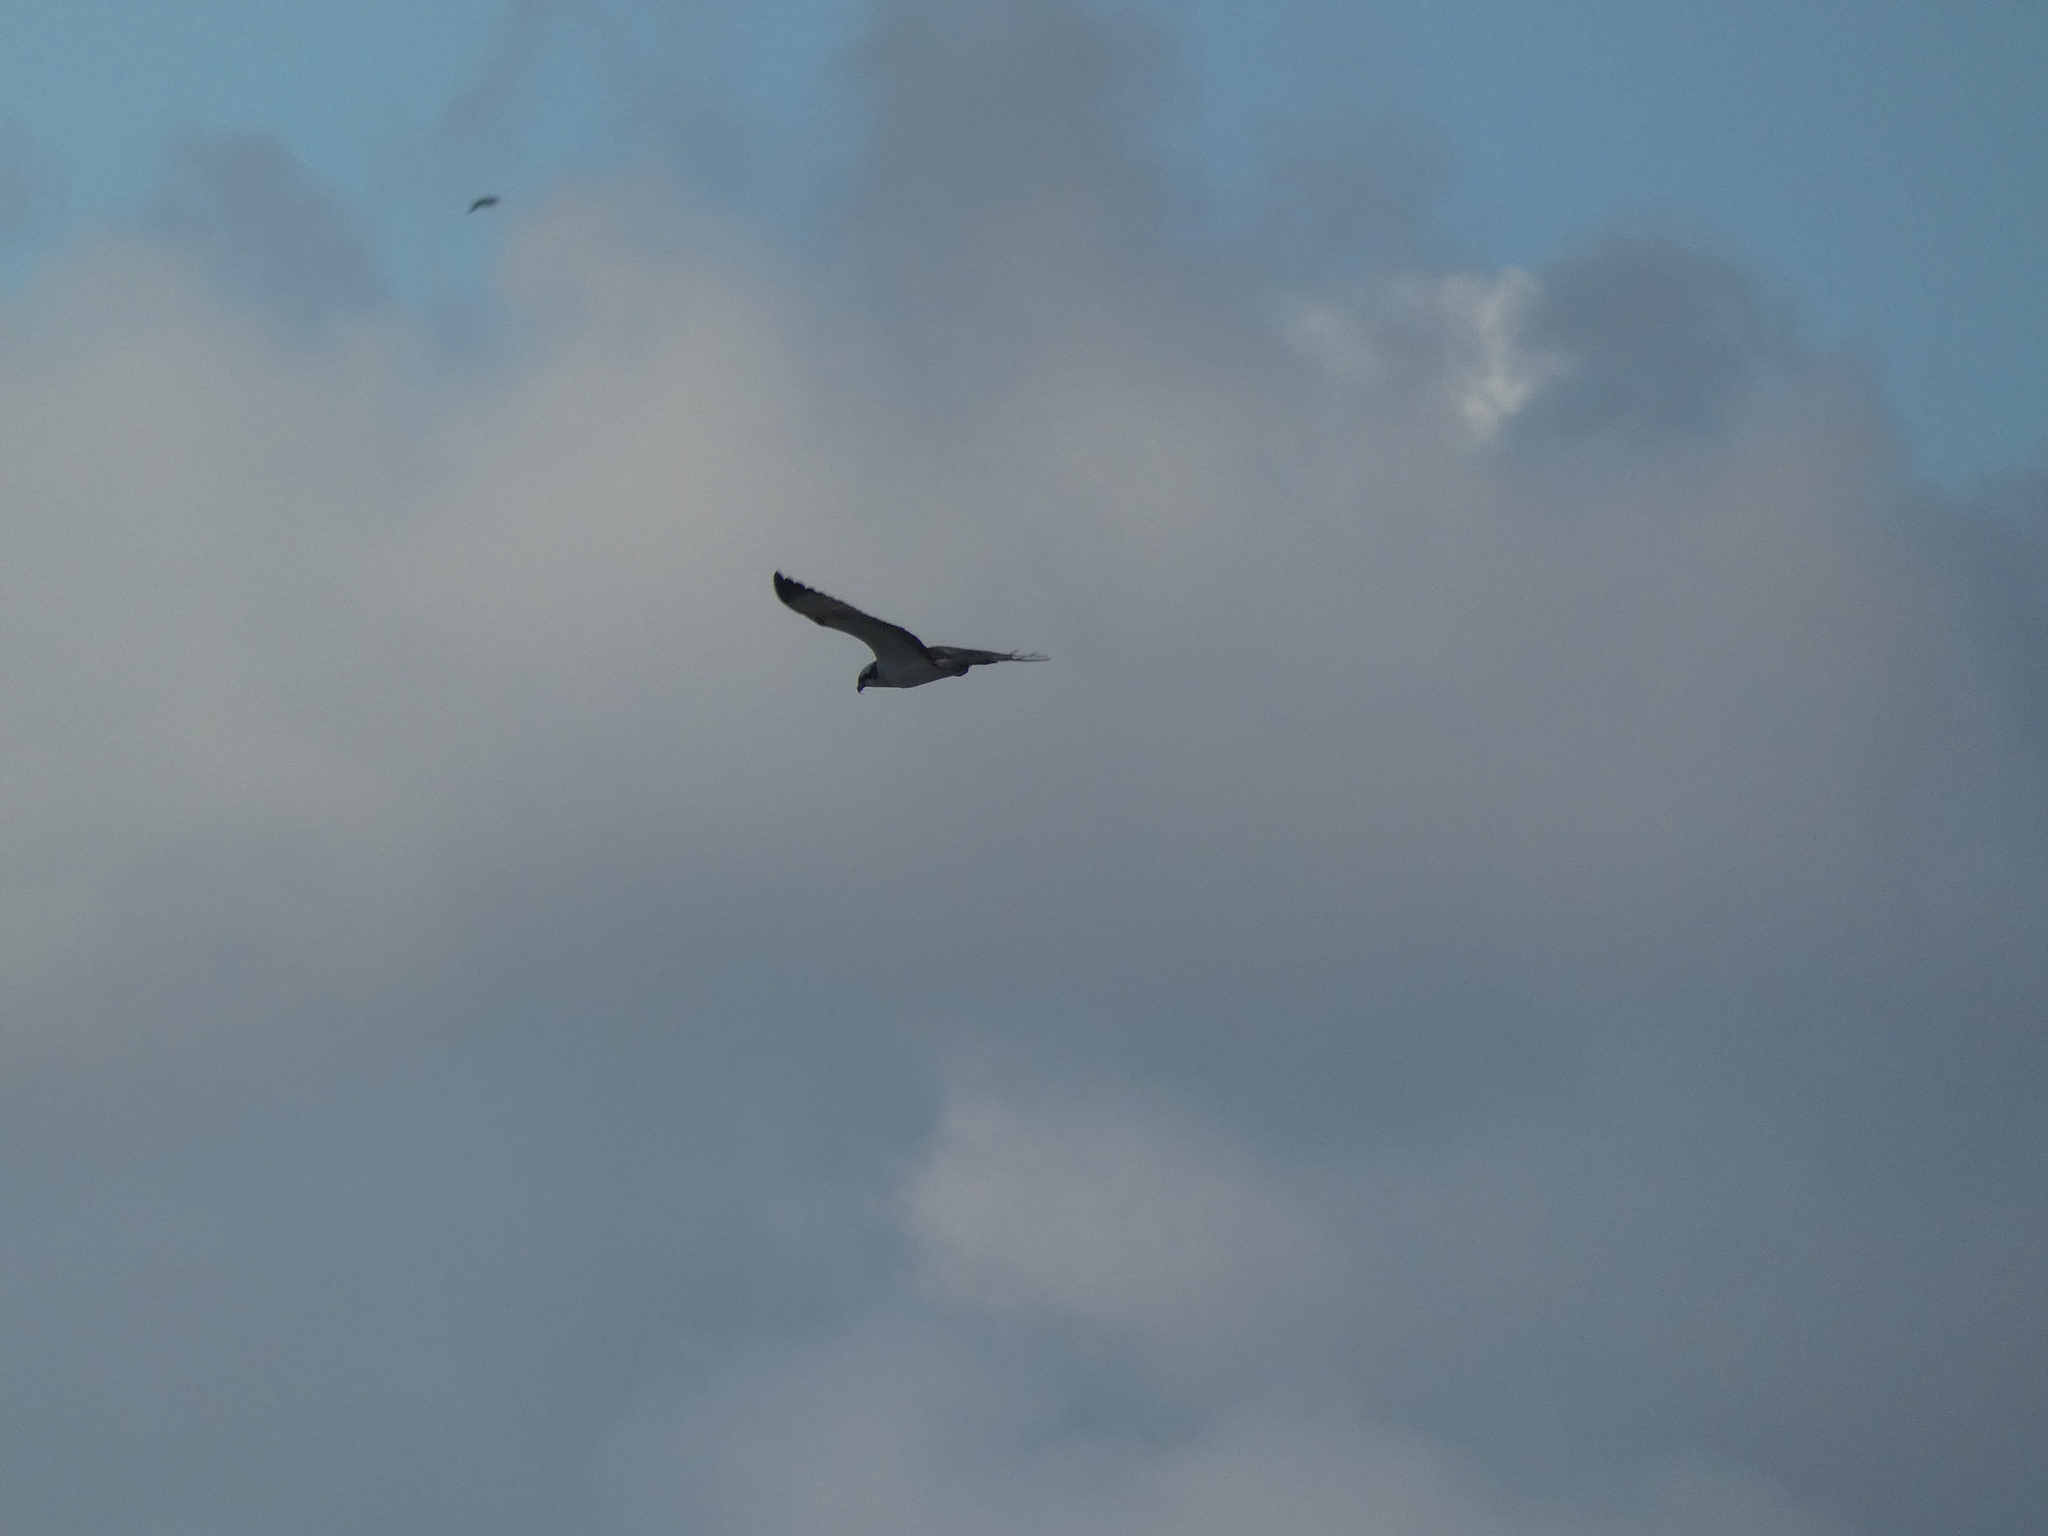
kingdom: Animalia
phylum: Chordata
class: Aves
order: Accipitriformes
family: Pandionidae
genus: Pandion
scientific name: Pandion haliaetus
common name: Osprey
